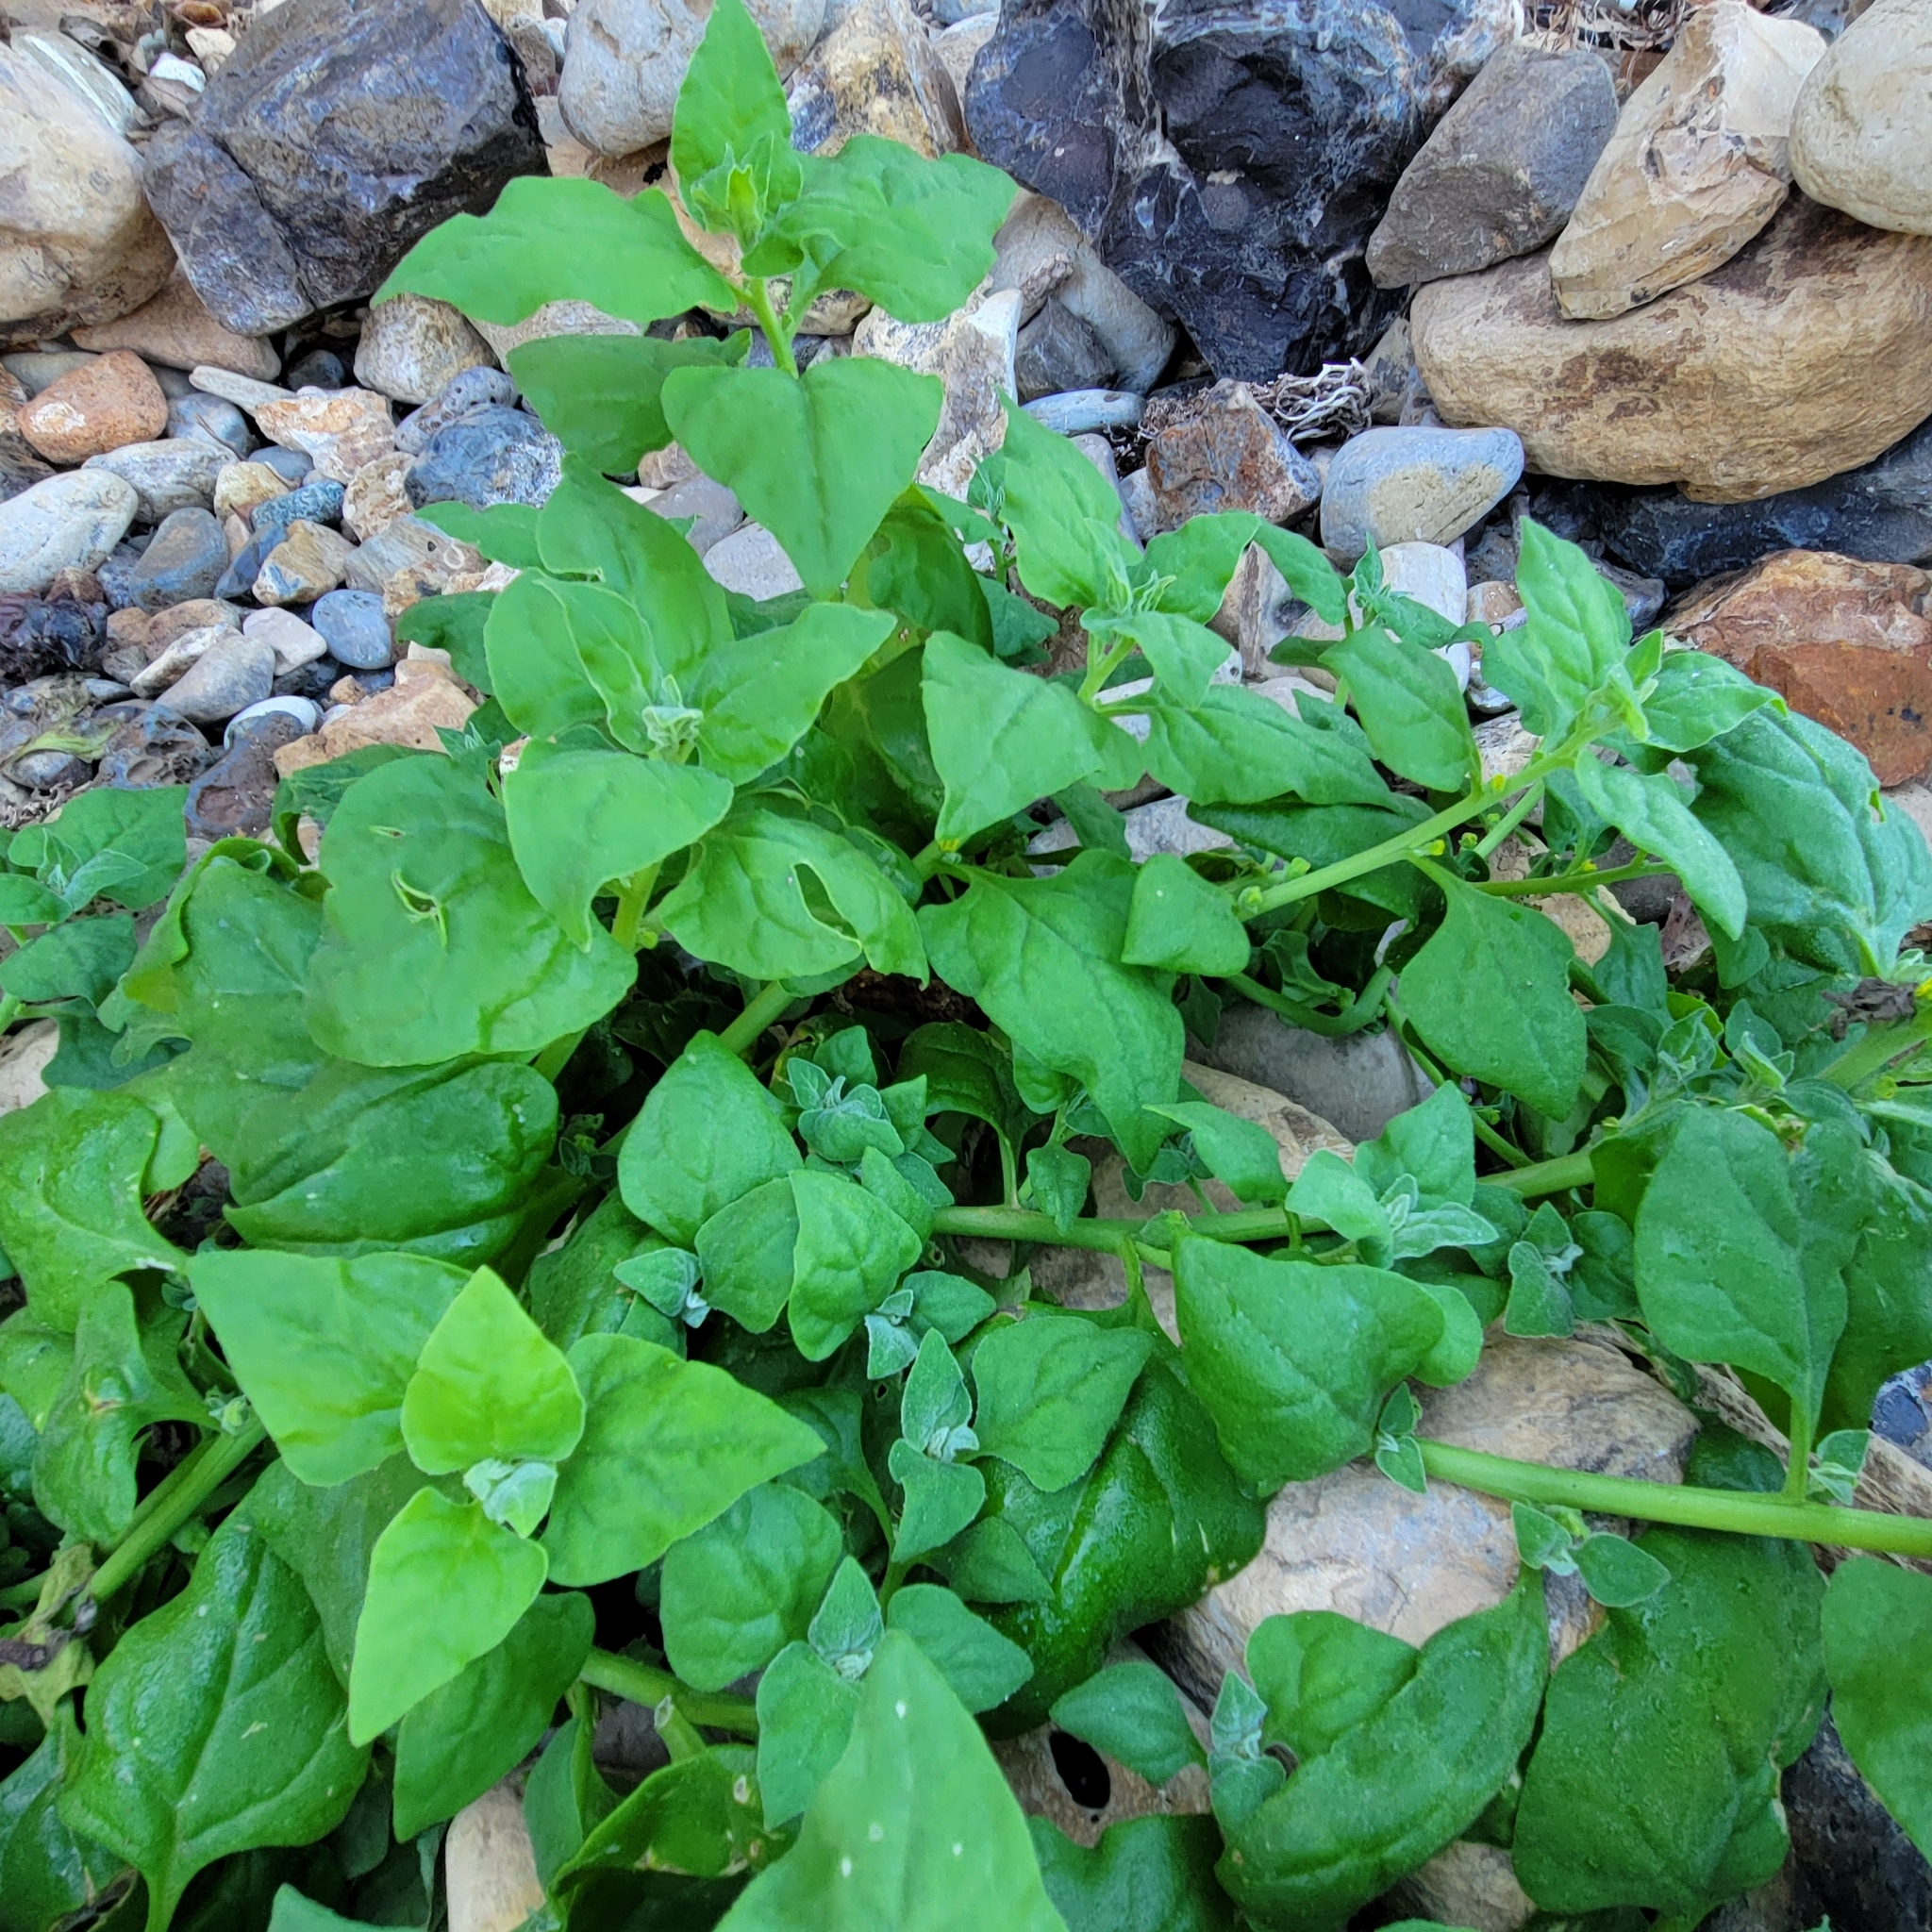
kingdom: Plantae
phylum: Tracheophyta
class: Magnoliopsida
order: Caryophyllales
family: Aizoaceae
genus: Tetragonia
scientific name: Tetragonia tetragonoides
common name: New zealand-spinach
